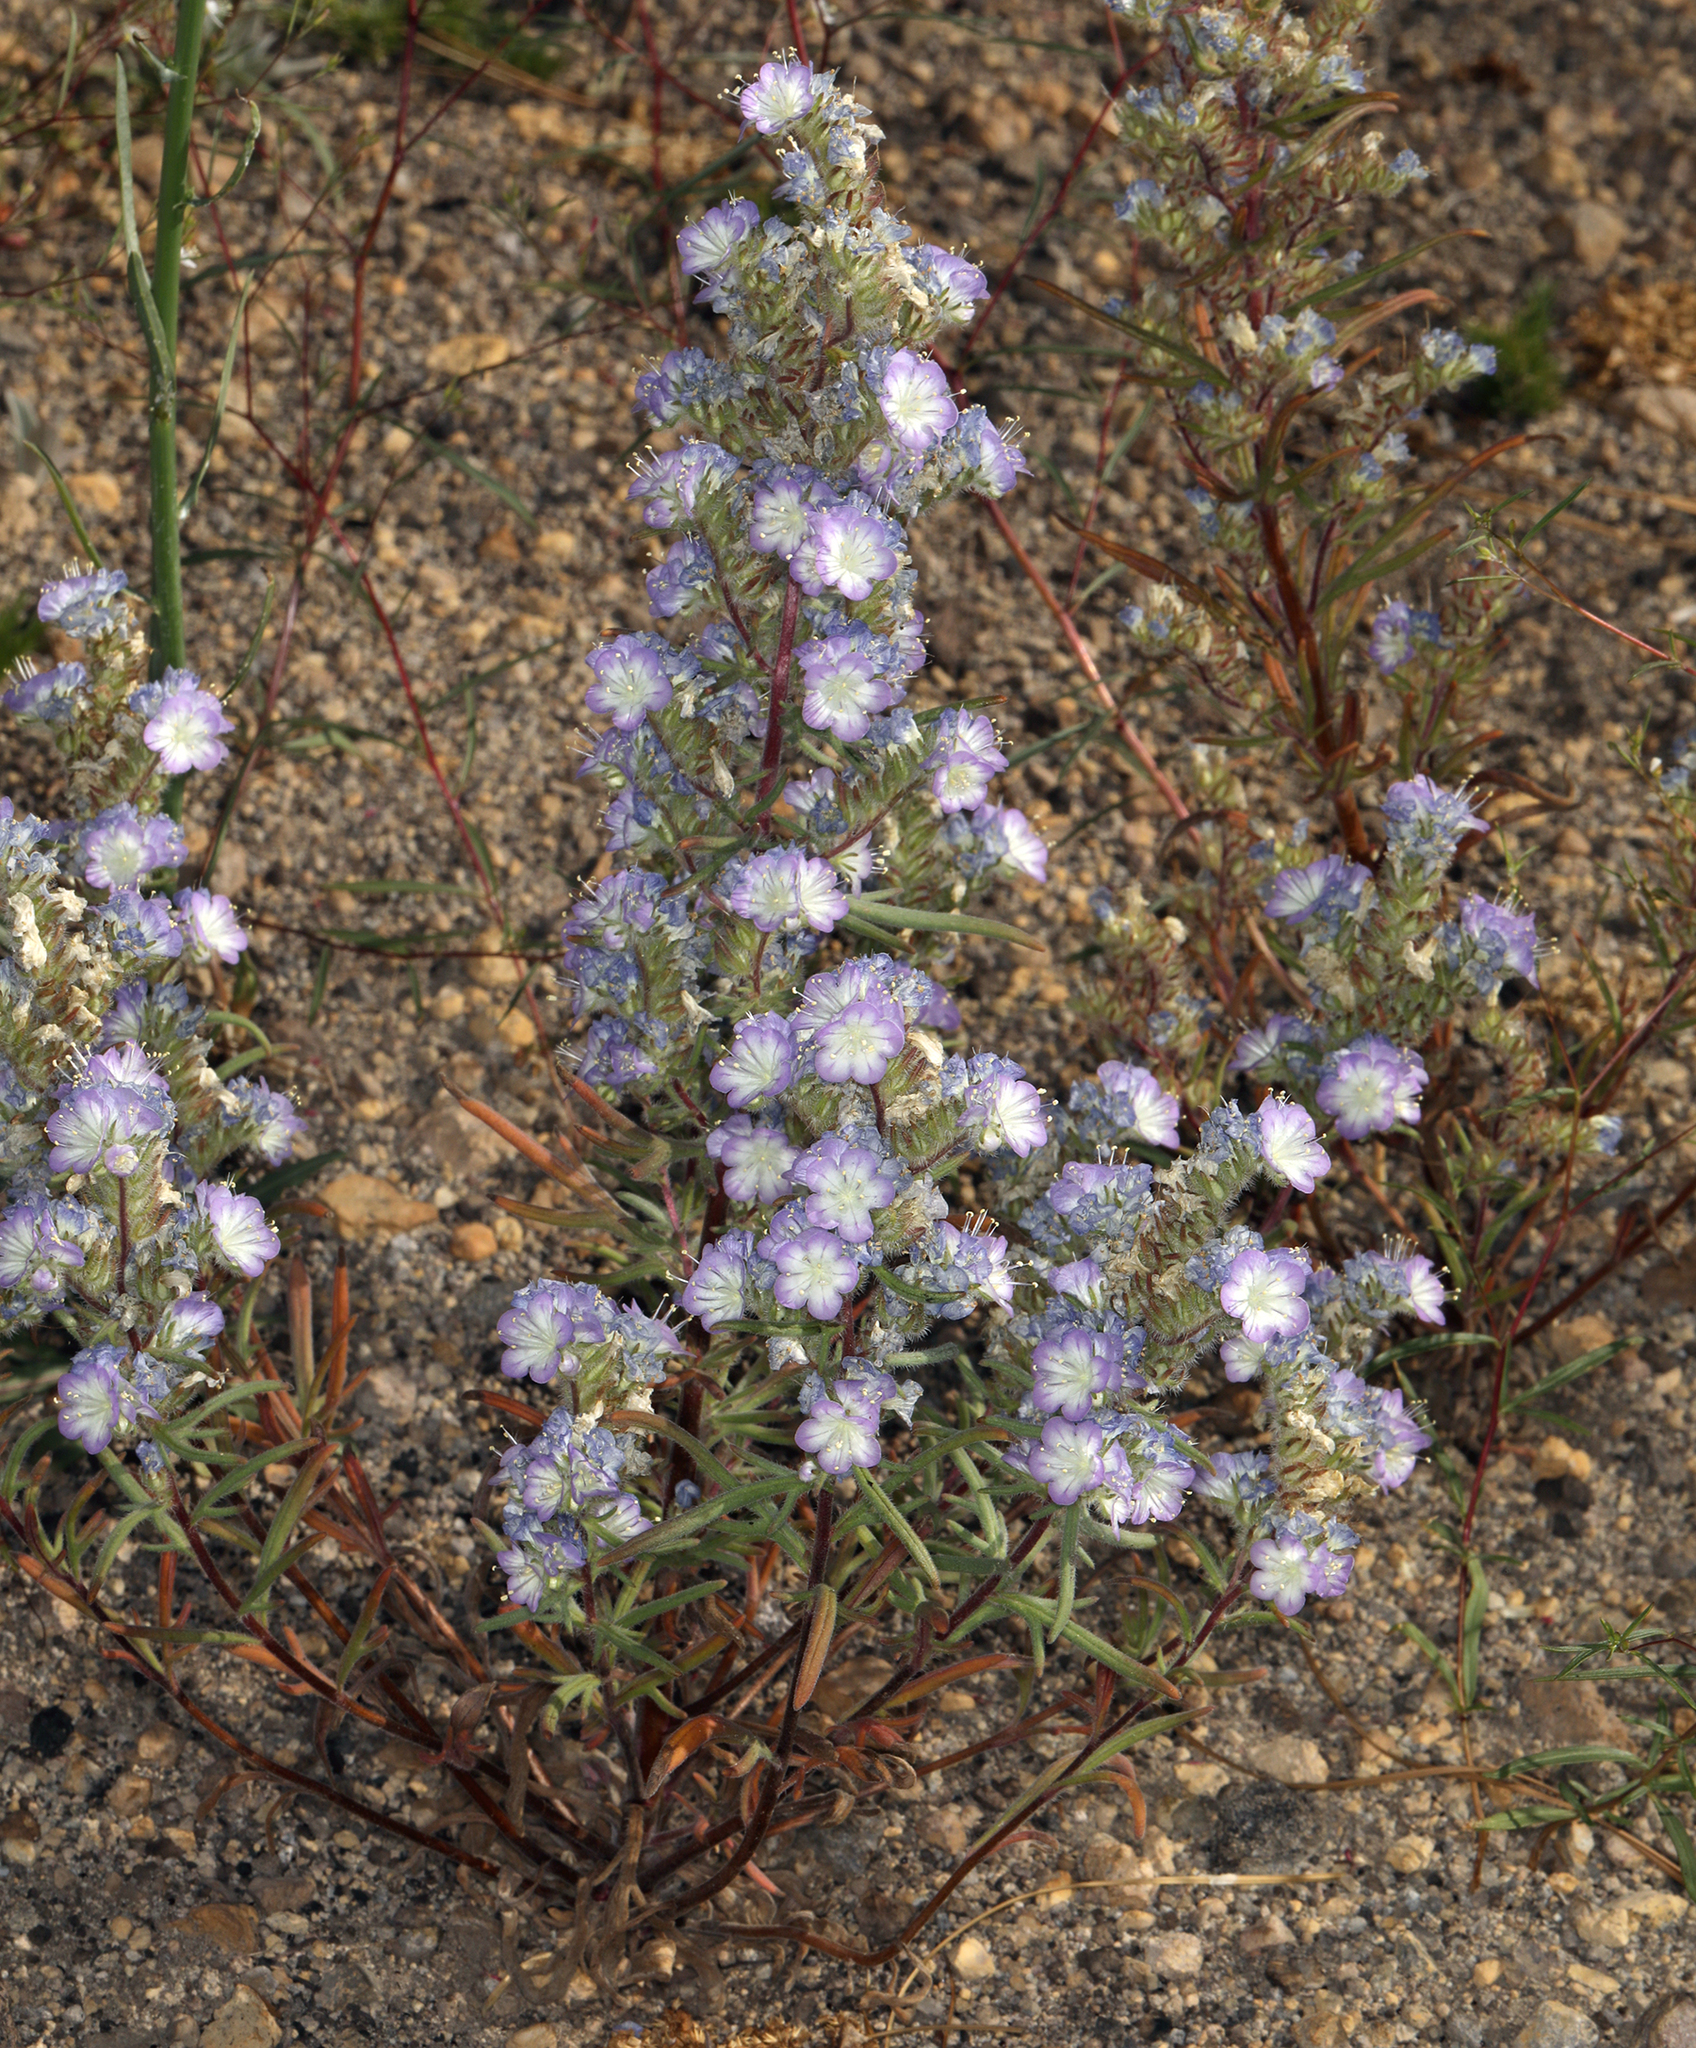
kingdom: Plantae
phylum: Tracheophyta
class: Magnoliopsida
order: Boraginales
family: Hydrophyllaceae
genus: Phacelia
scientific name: Phacelia linearis
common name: Linear-leaved phacelia
